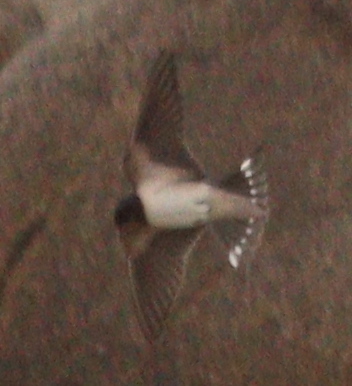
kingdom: Animalia
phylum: Chordata
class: Aves
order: Passeriformes
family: Hirundinidae
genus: Hirundo
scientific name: Hirundo rustica
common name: Barn swallow
